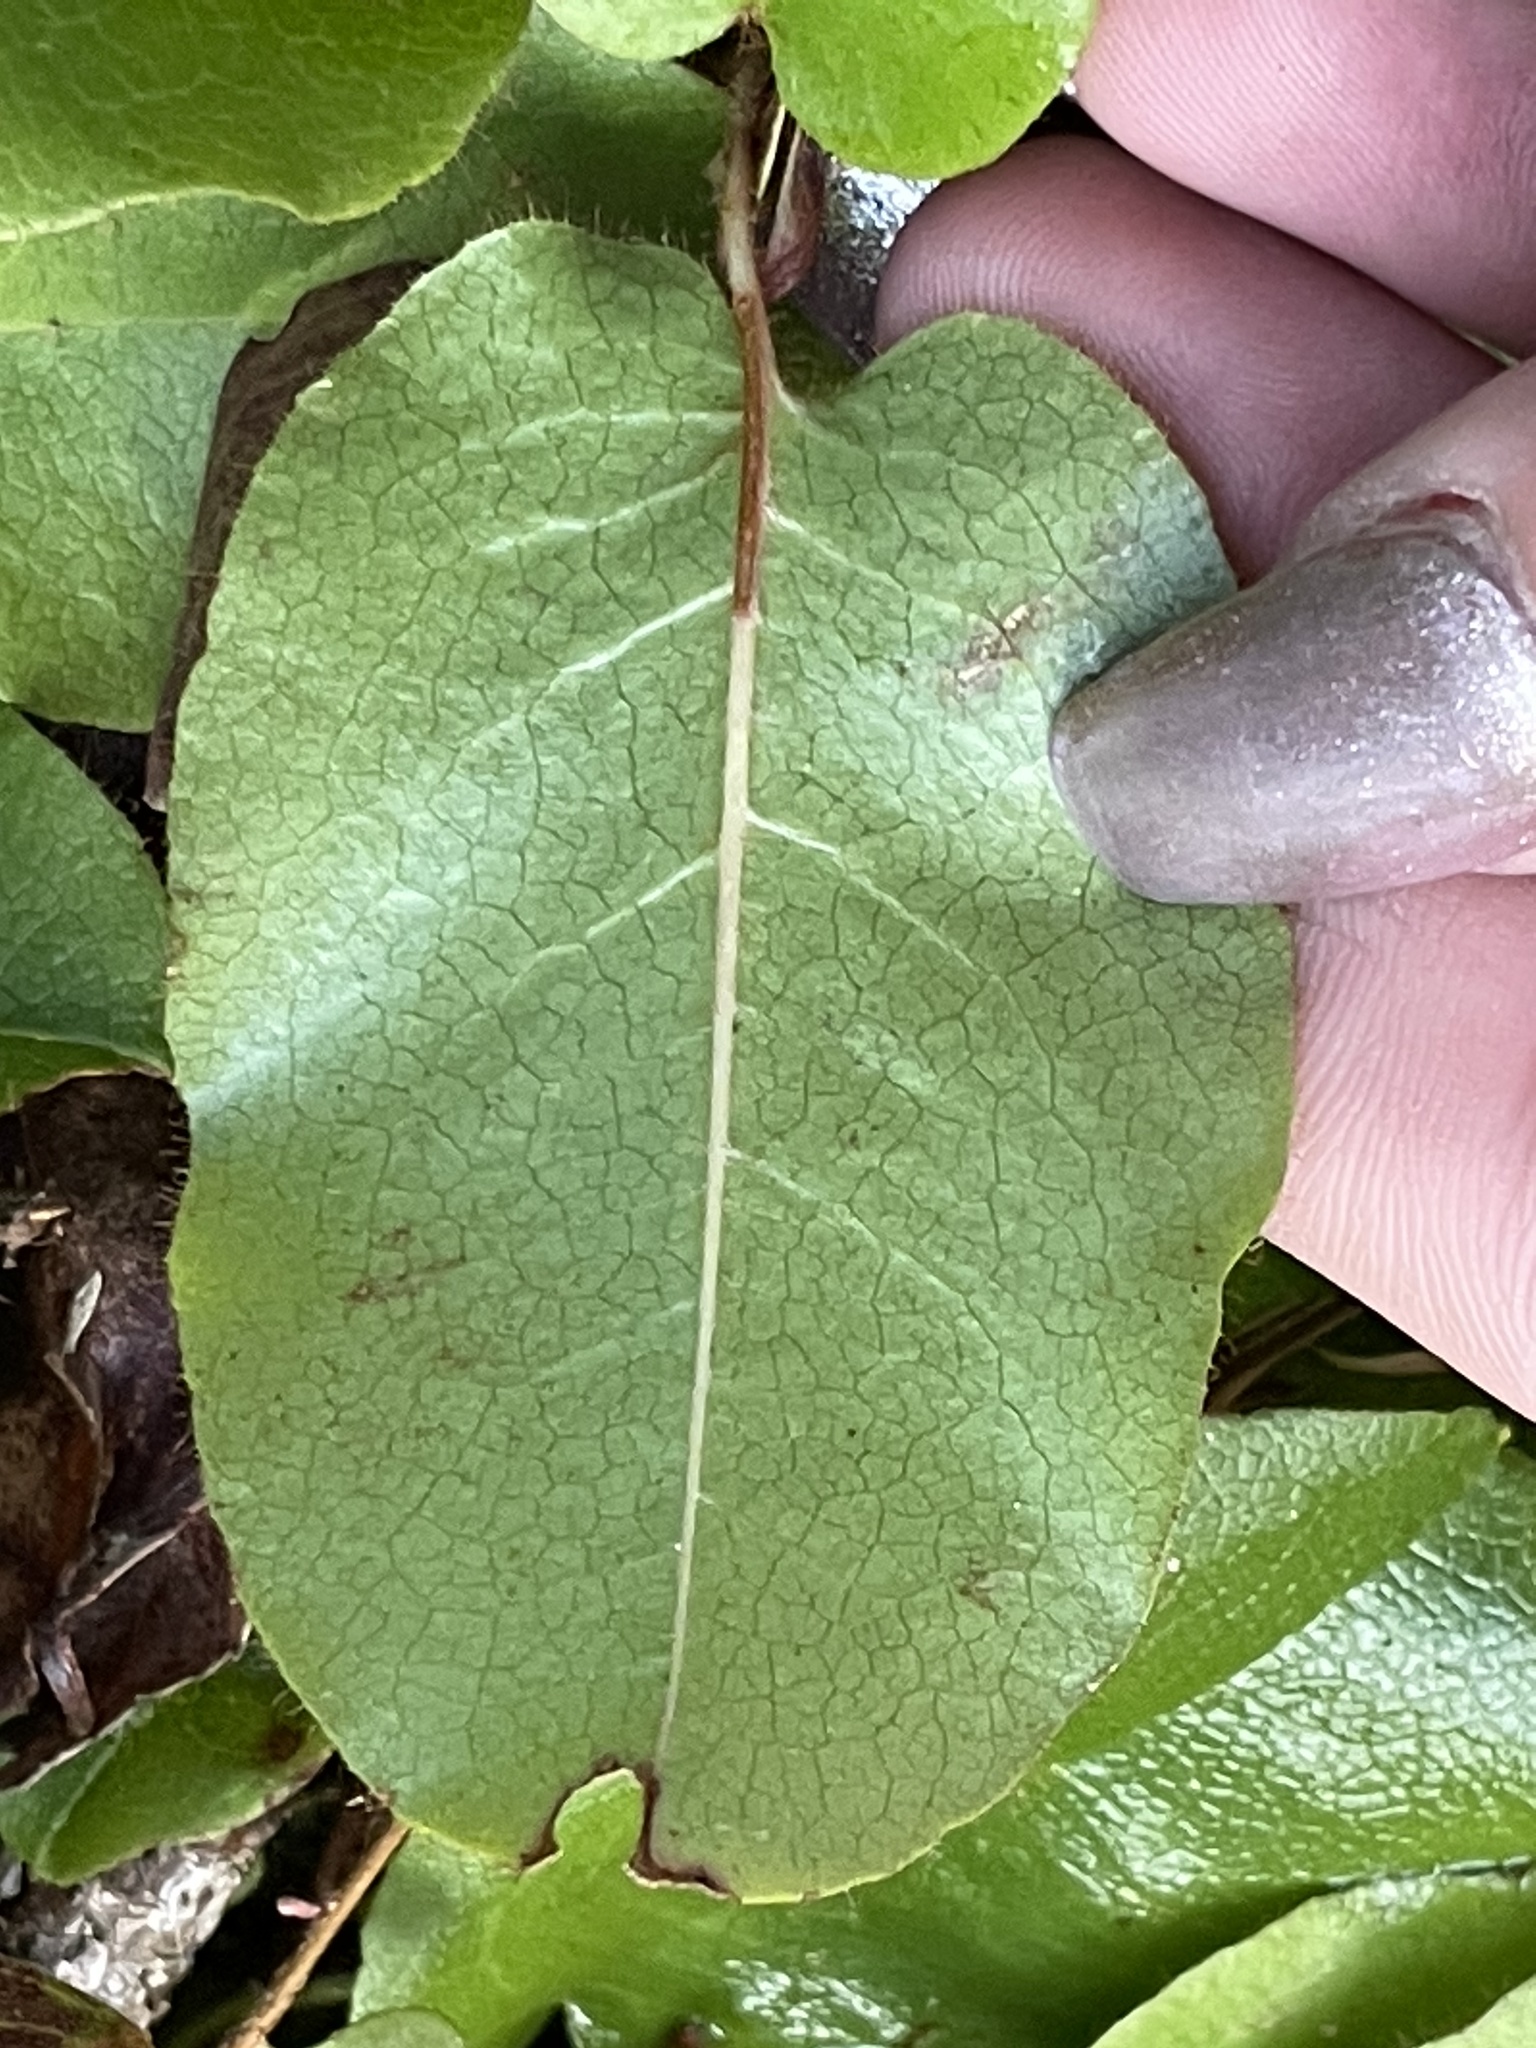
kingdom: Plantae
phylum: Tracheophyta
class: Magnoliopsida
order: Ericales
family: Ericaceae
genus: Epigaea
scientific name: Epigaea repens
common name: Gravelroot
